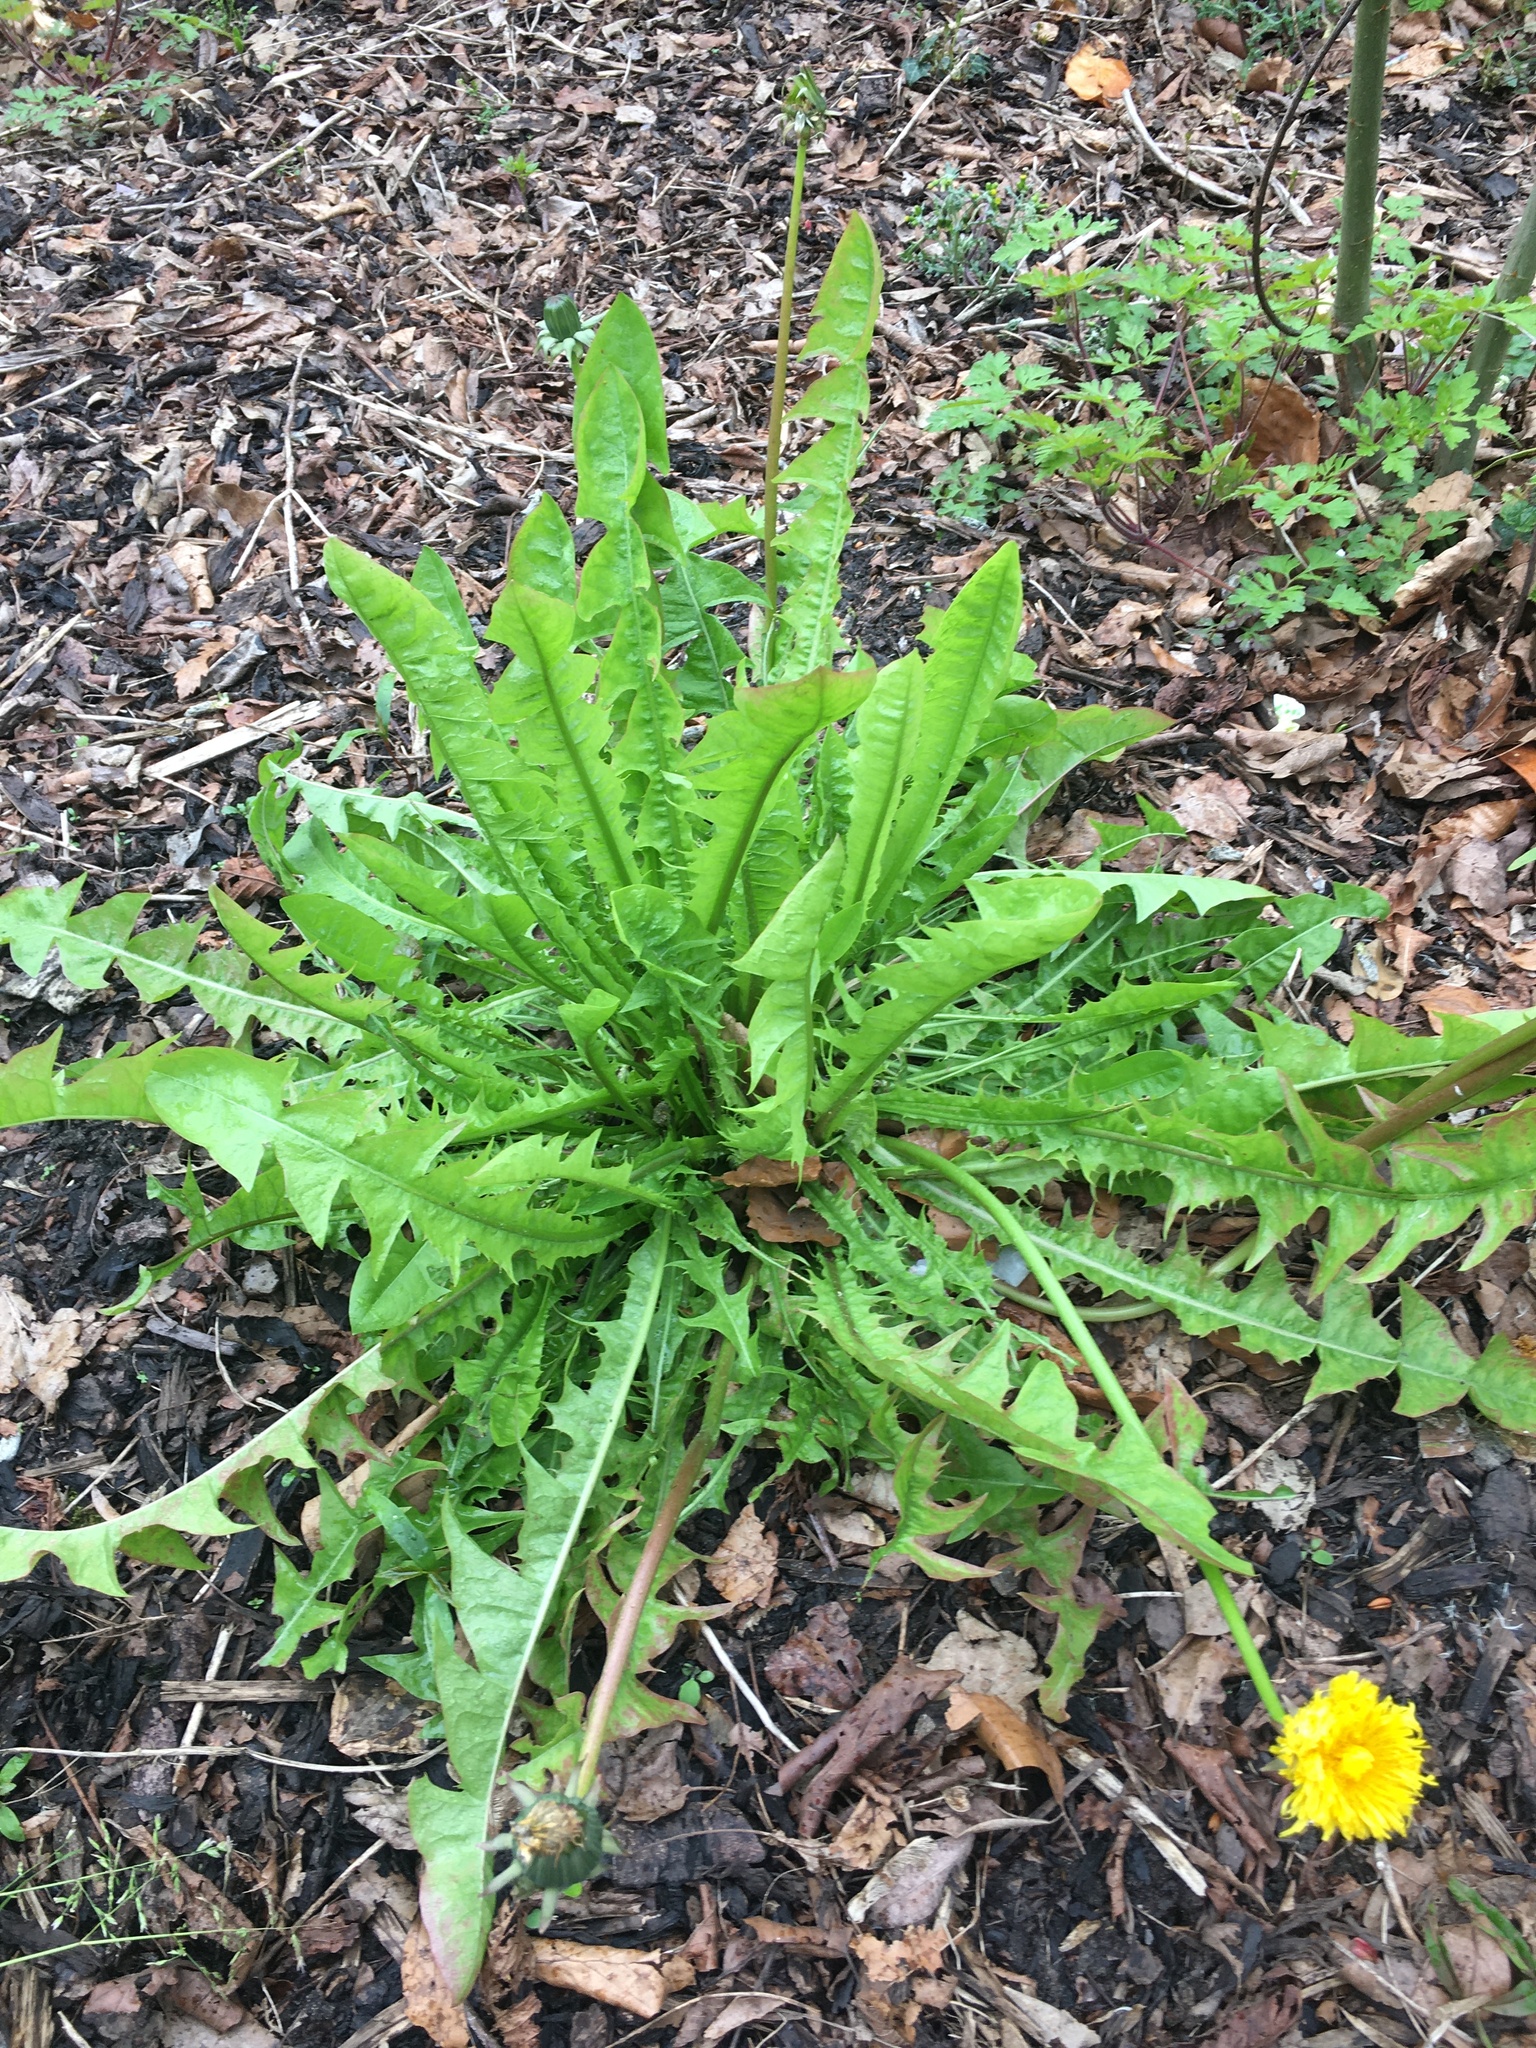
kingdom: Plantae
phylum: Tracheophyta
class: Magnoliopsida
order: Asterales
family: Asteraceae
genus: Taraxacum
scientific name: Taraxacum officinale
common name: Common dandelion
